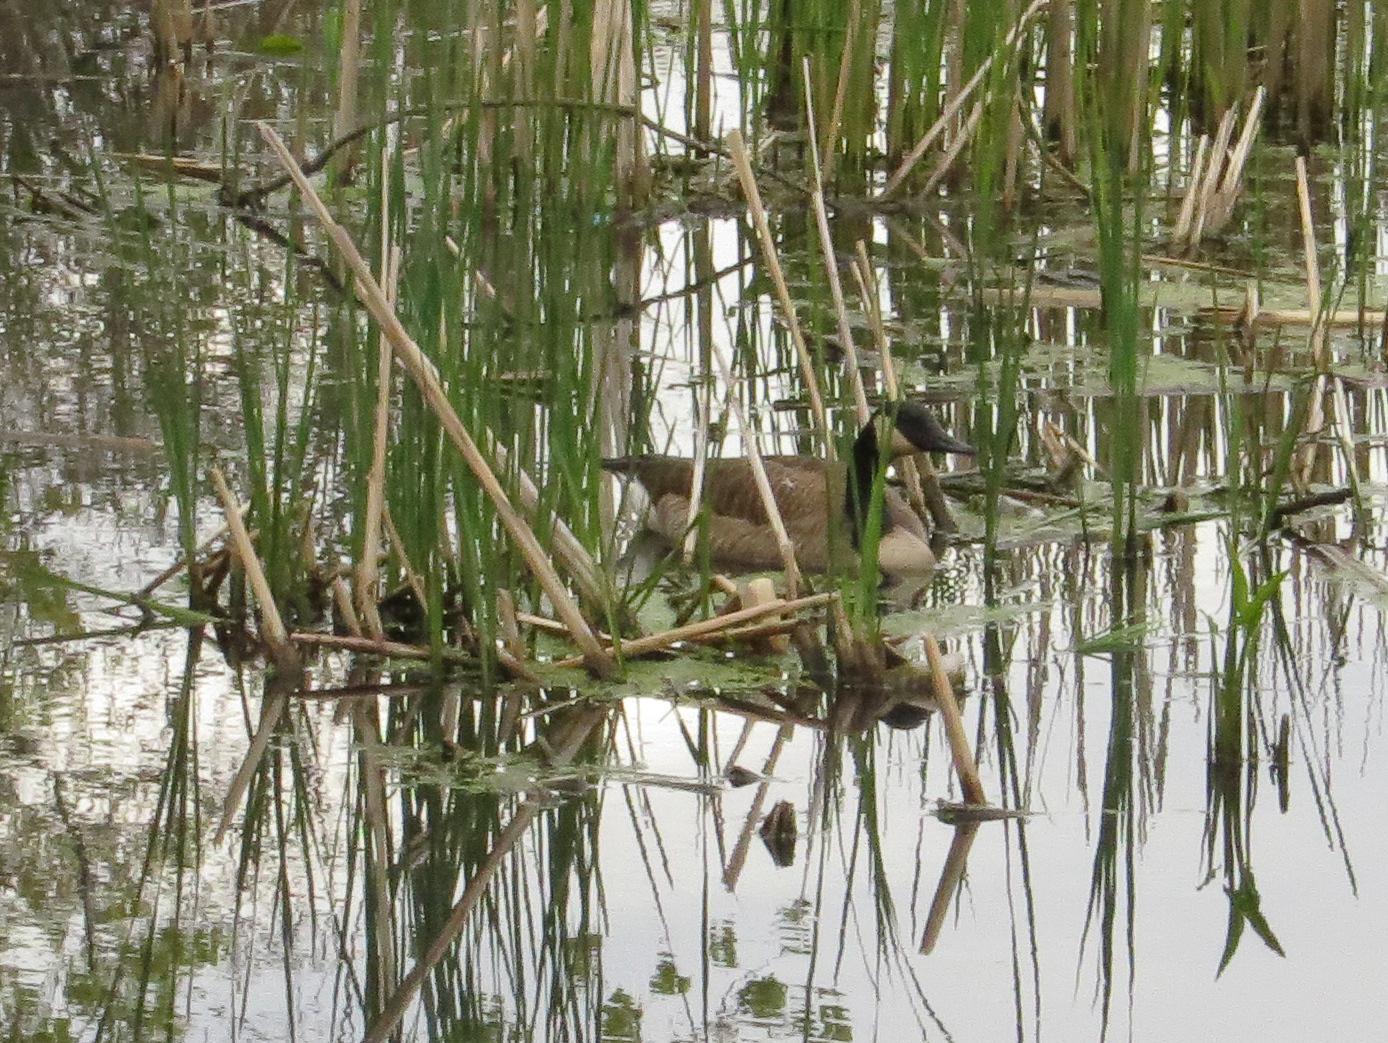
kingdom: Animalia
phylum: Chordata
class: Aves
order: Anseriformes
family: Anatidae
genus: Branta
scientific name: Branta canadensis
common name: Canada goose
